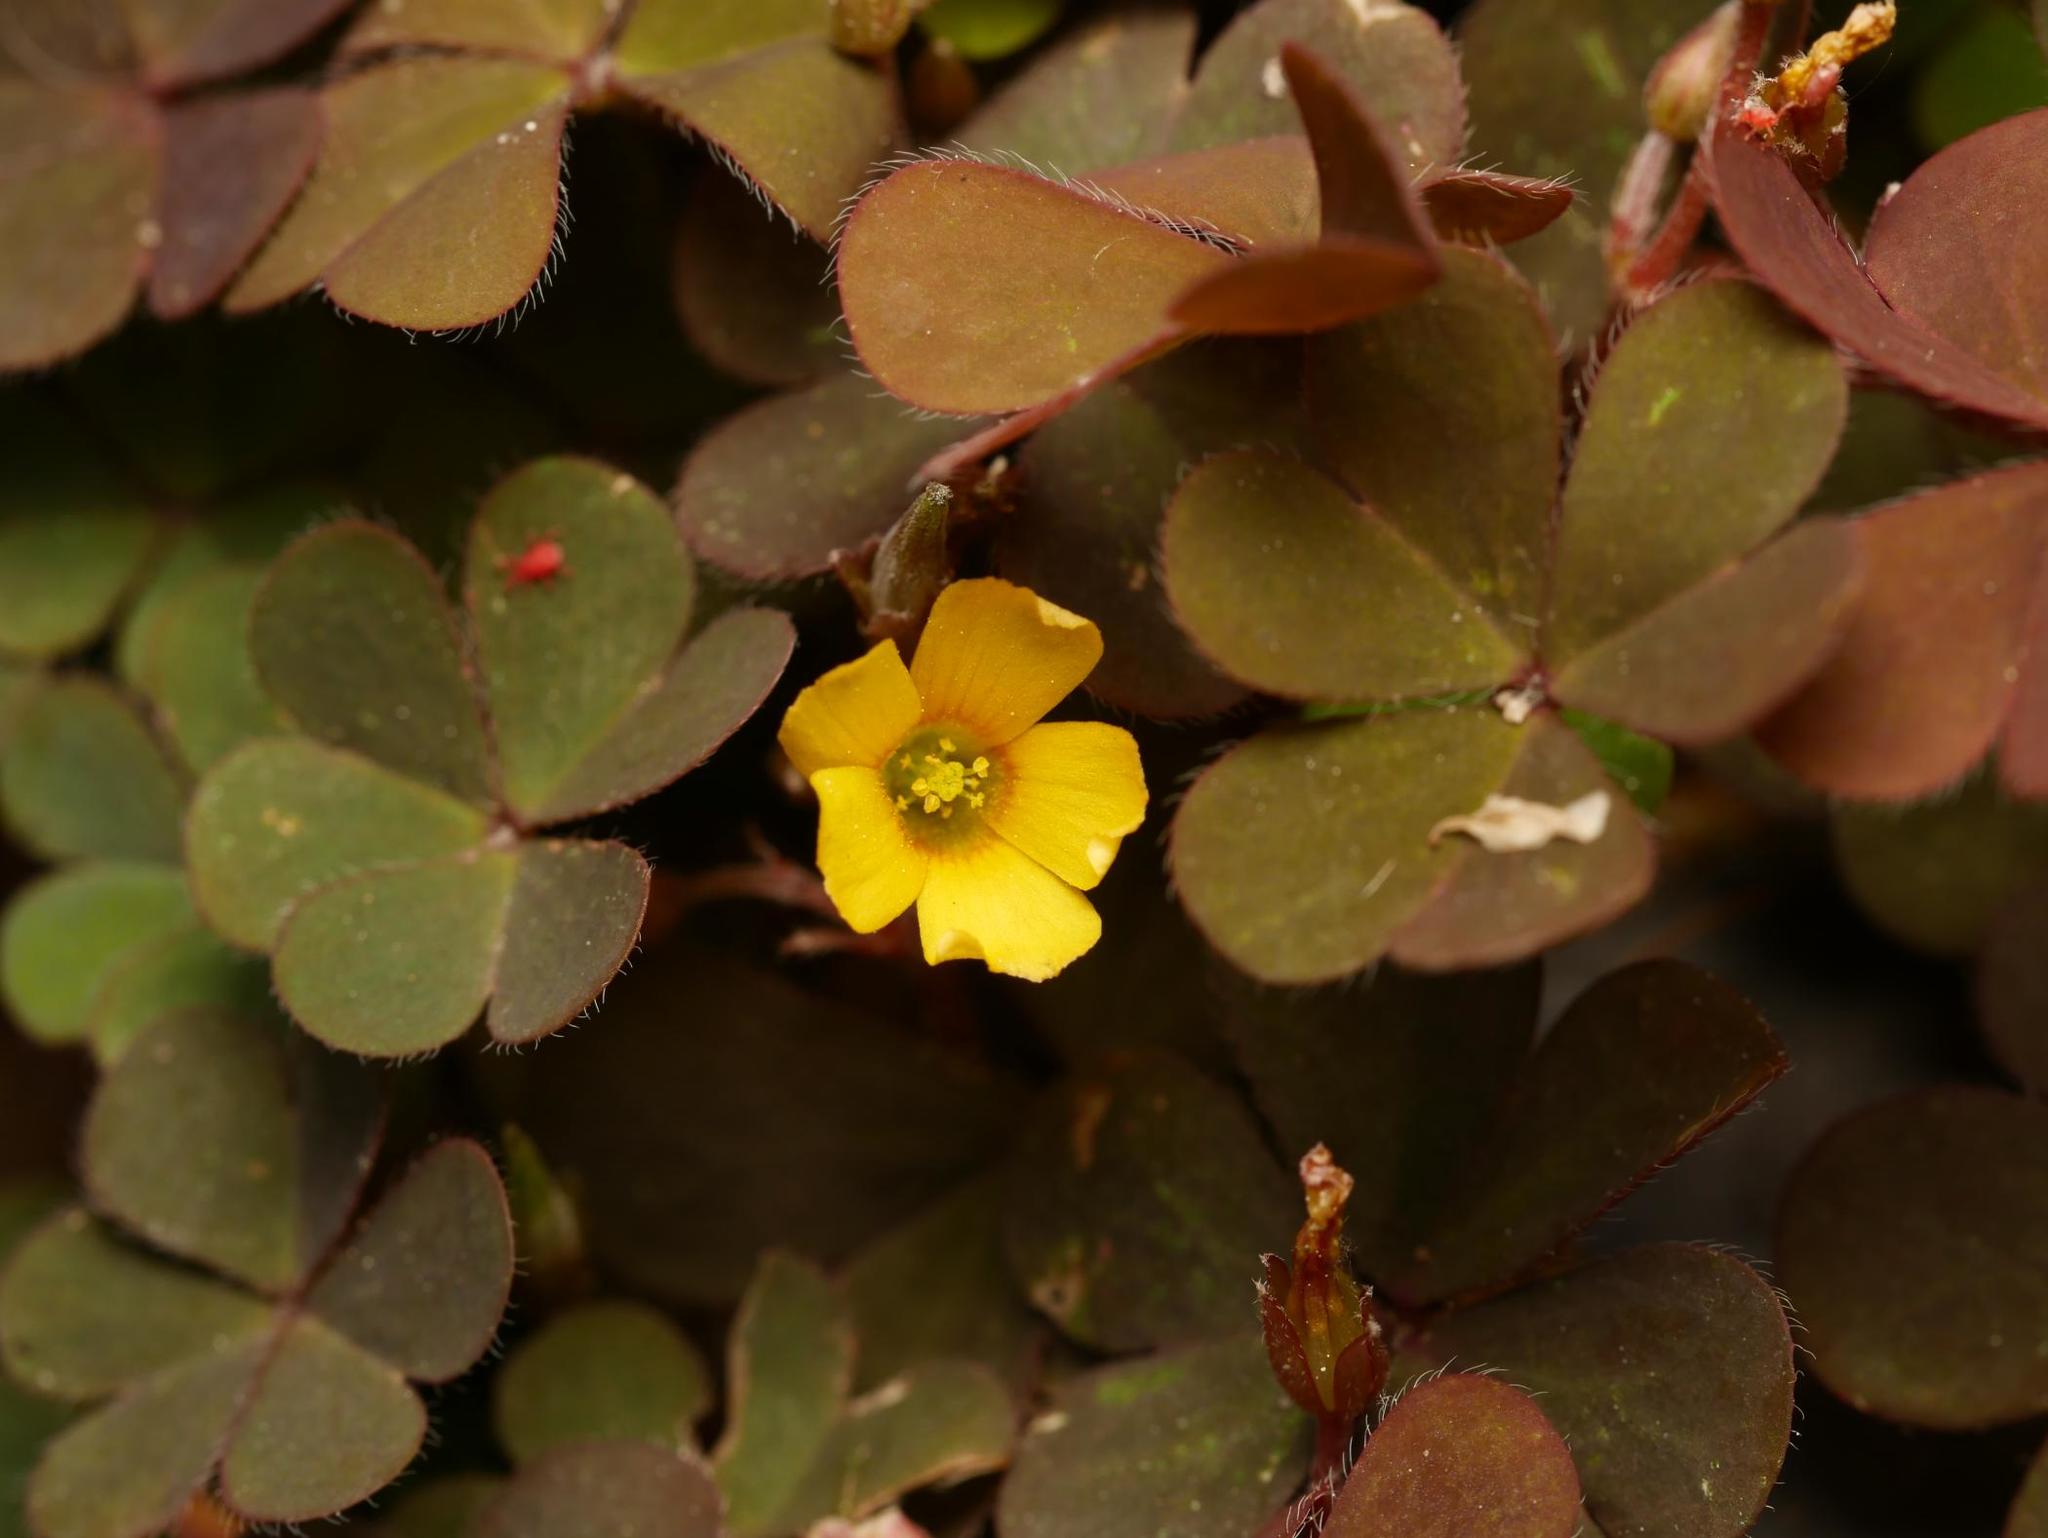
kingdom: Plantae
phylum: Tracheophyta
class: Magnoliopsida
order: Oxalidales
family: Oxalidaceae
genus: Oxalis
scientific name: Oxalis corniculata
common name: Procumbent yellow-sorrel
